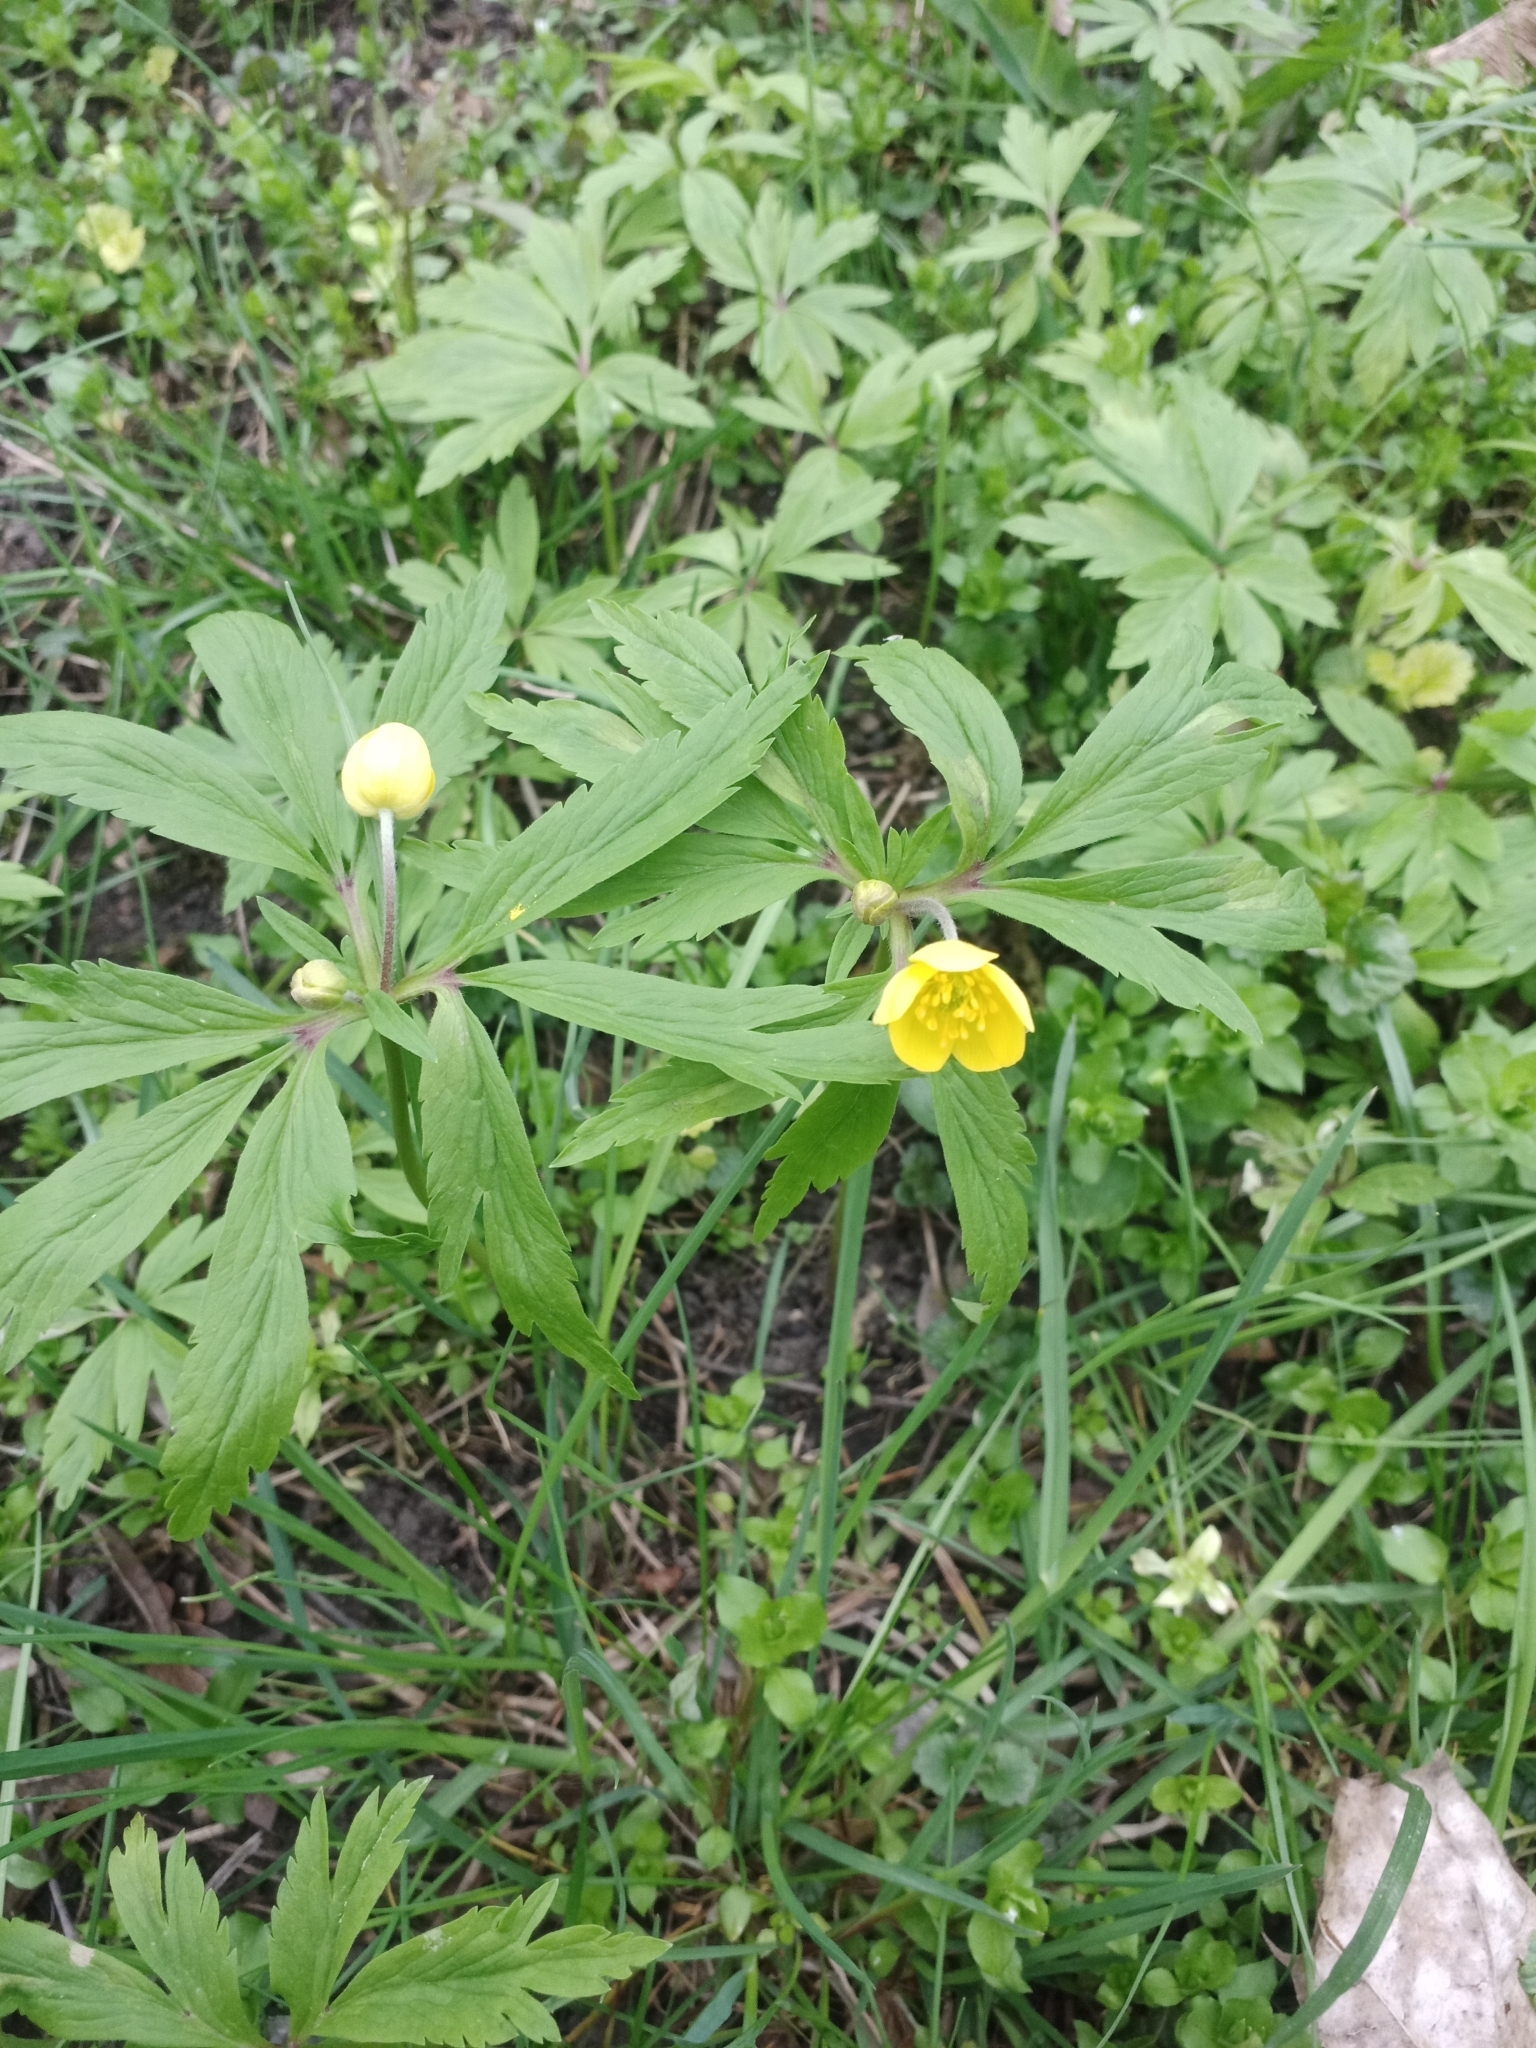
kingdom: Plantae
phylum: Tracheophyta
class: Magnoliopsida
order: Ranunculales
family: Ranunculaceae
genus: Anemone
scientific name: Anemone ranunculoides
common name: Yellow anemone
